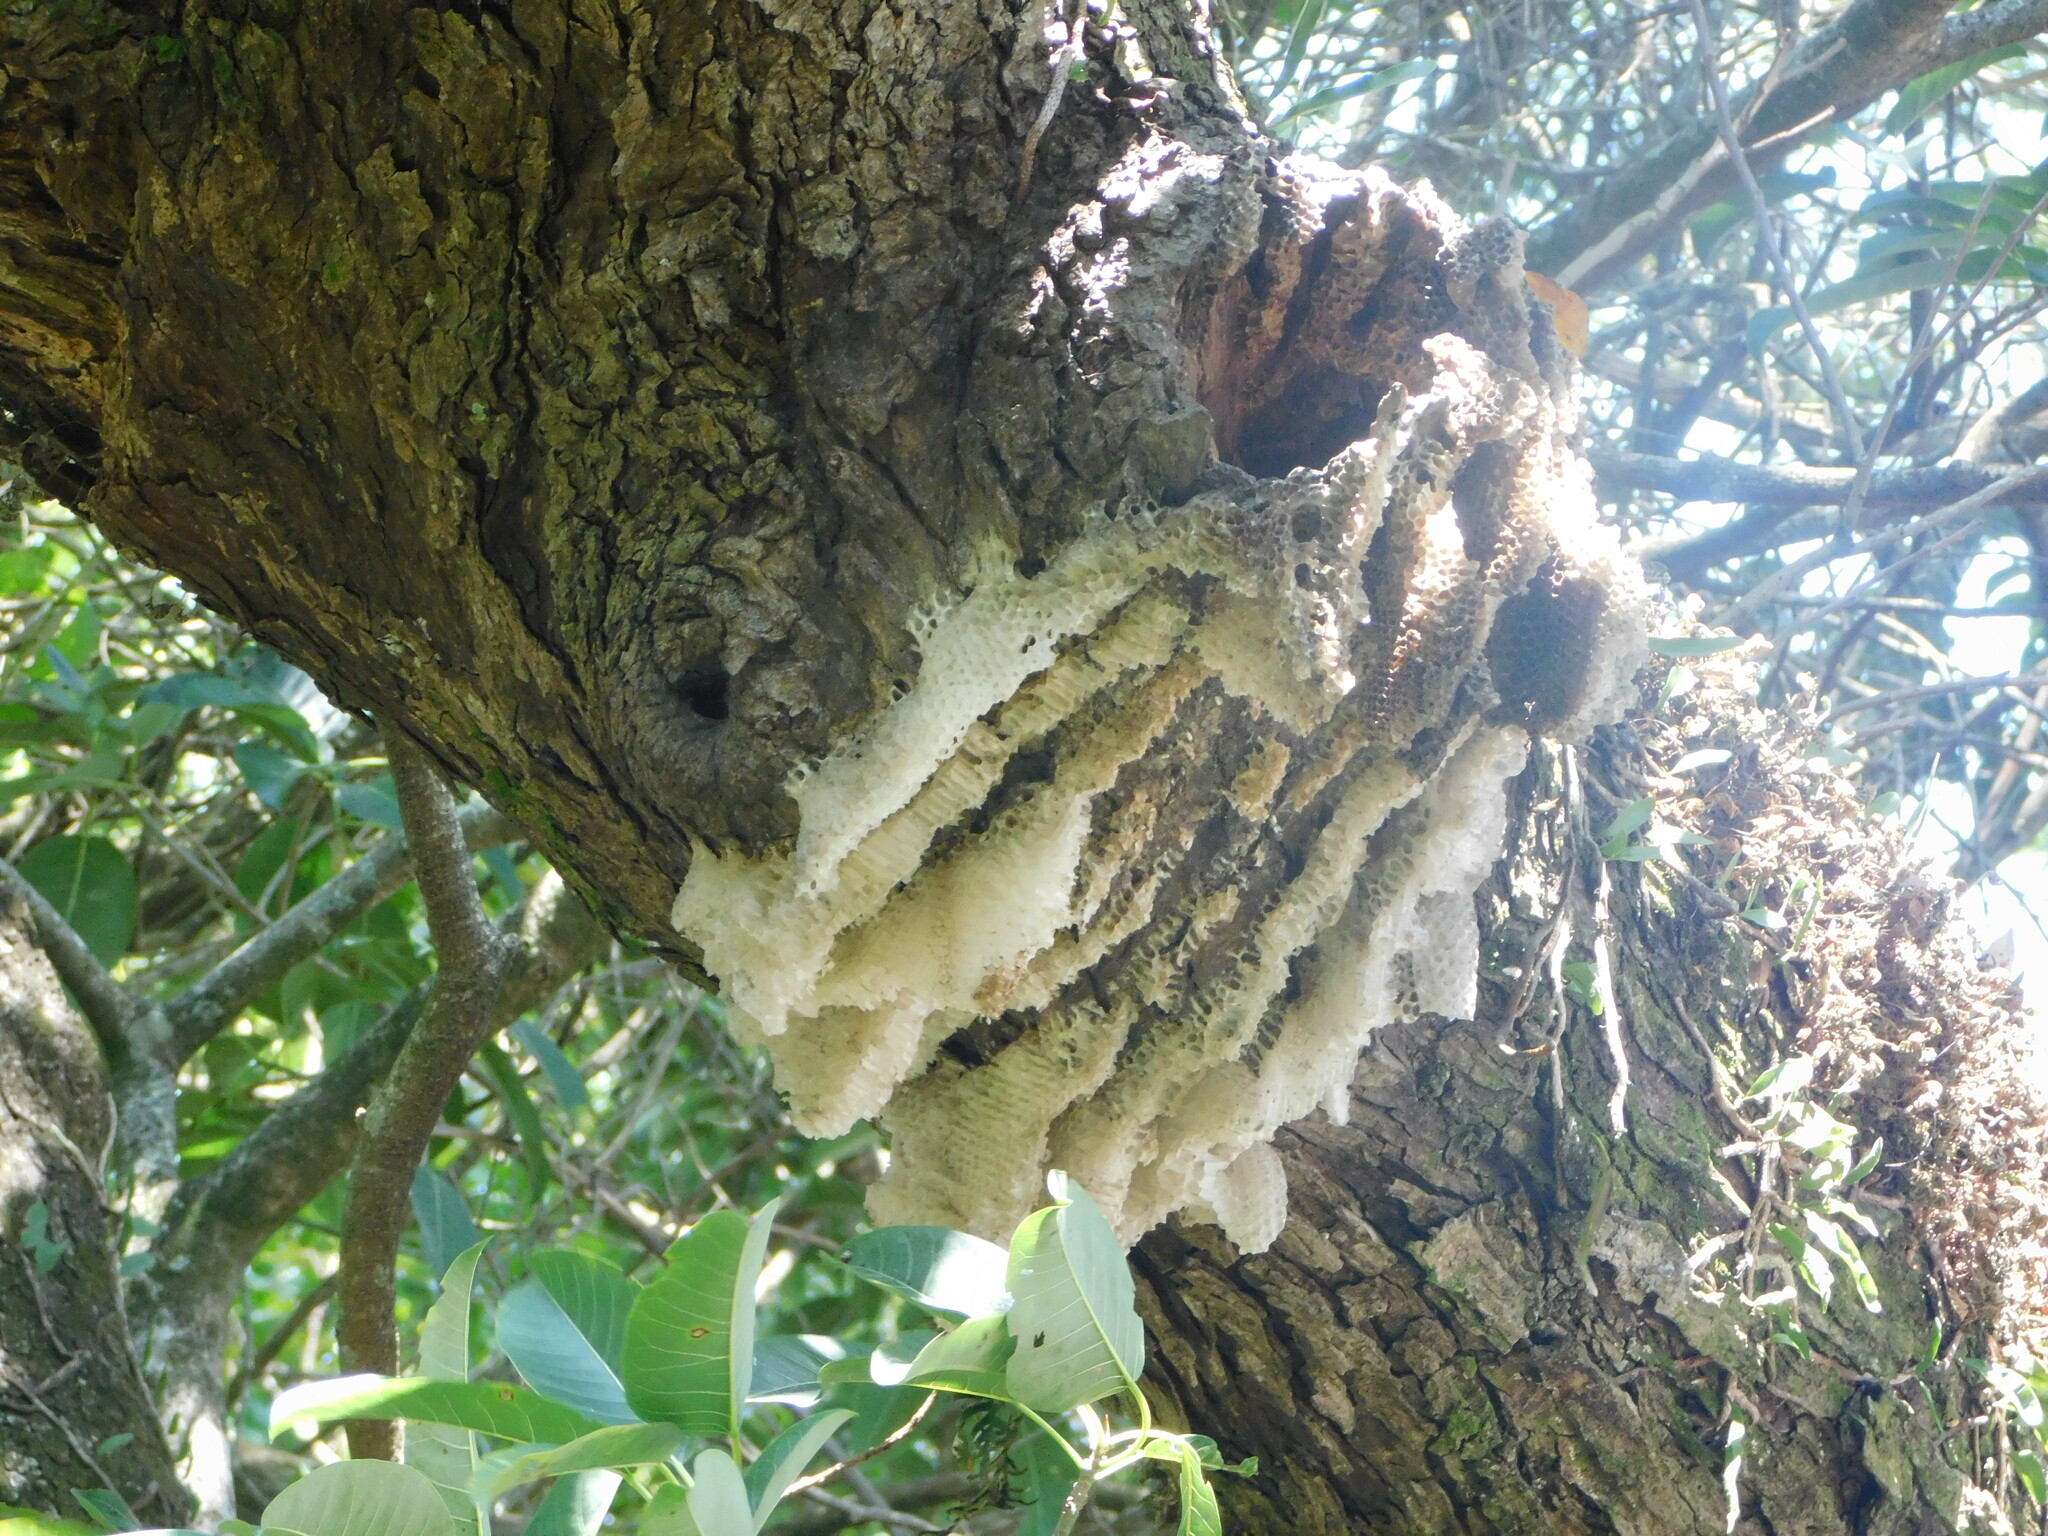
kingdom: Animalia
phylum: Arthropoda
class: Insecta
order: Hymenoptera
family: Apidae
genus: Apis
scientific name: Apis mellifera
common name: Honey bee
